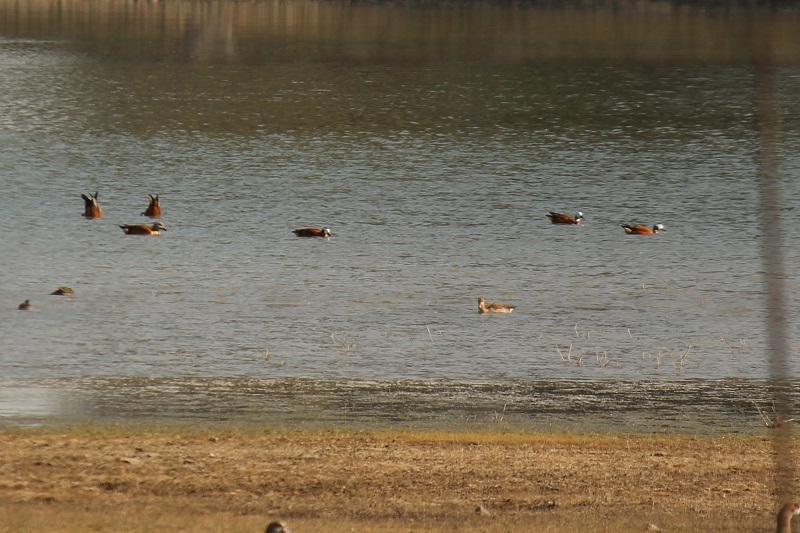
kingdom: Animalia
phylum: Chordata
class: Aves
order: Anseriformes
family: Anatidae
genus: Tadorna
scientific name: Tadorna cana
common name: South african shelduck
